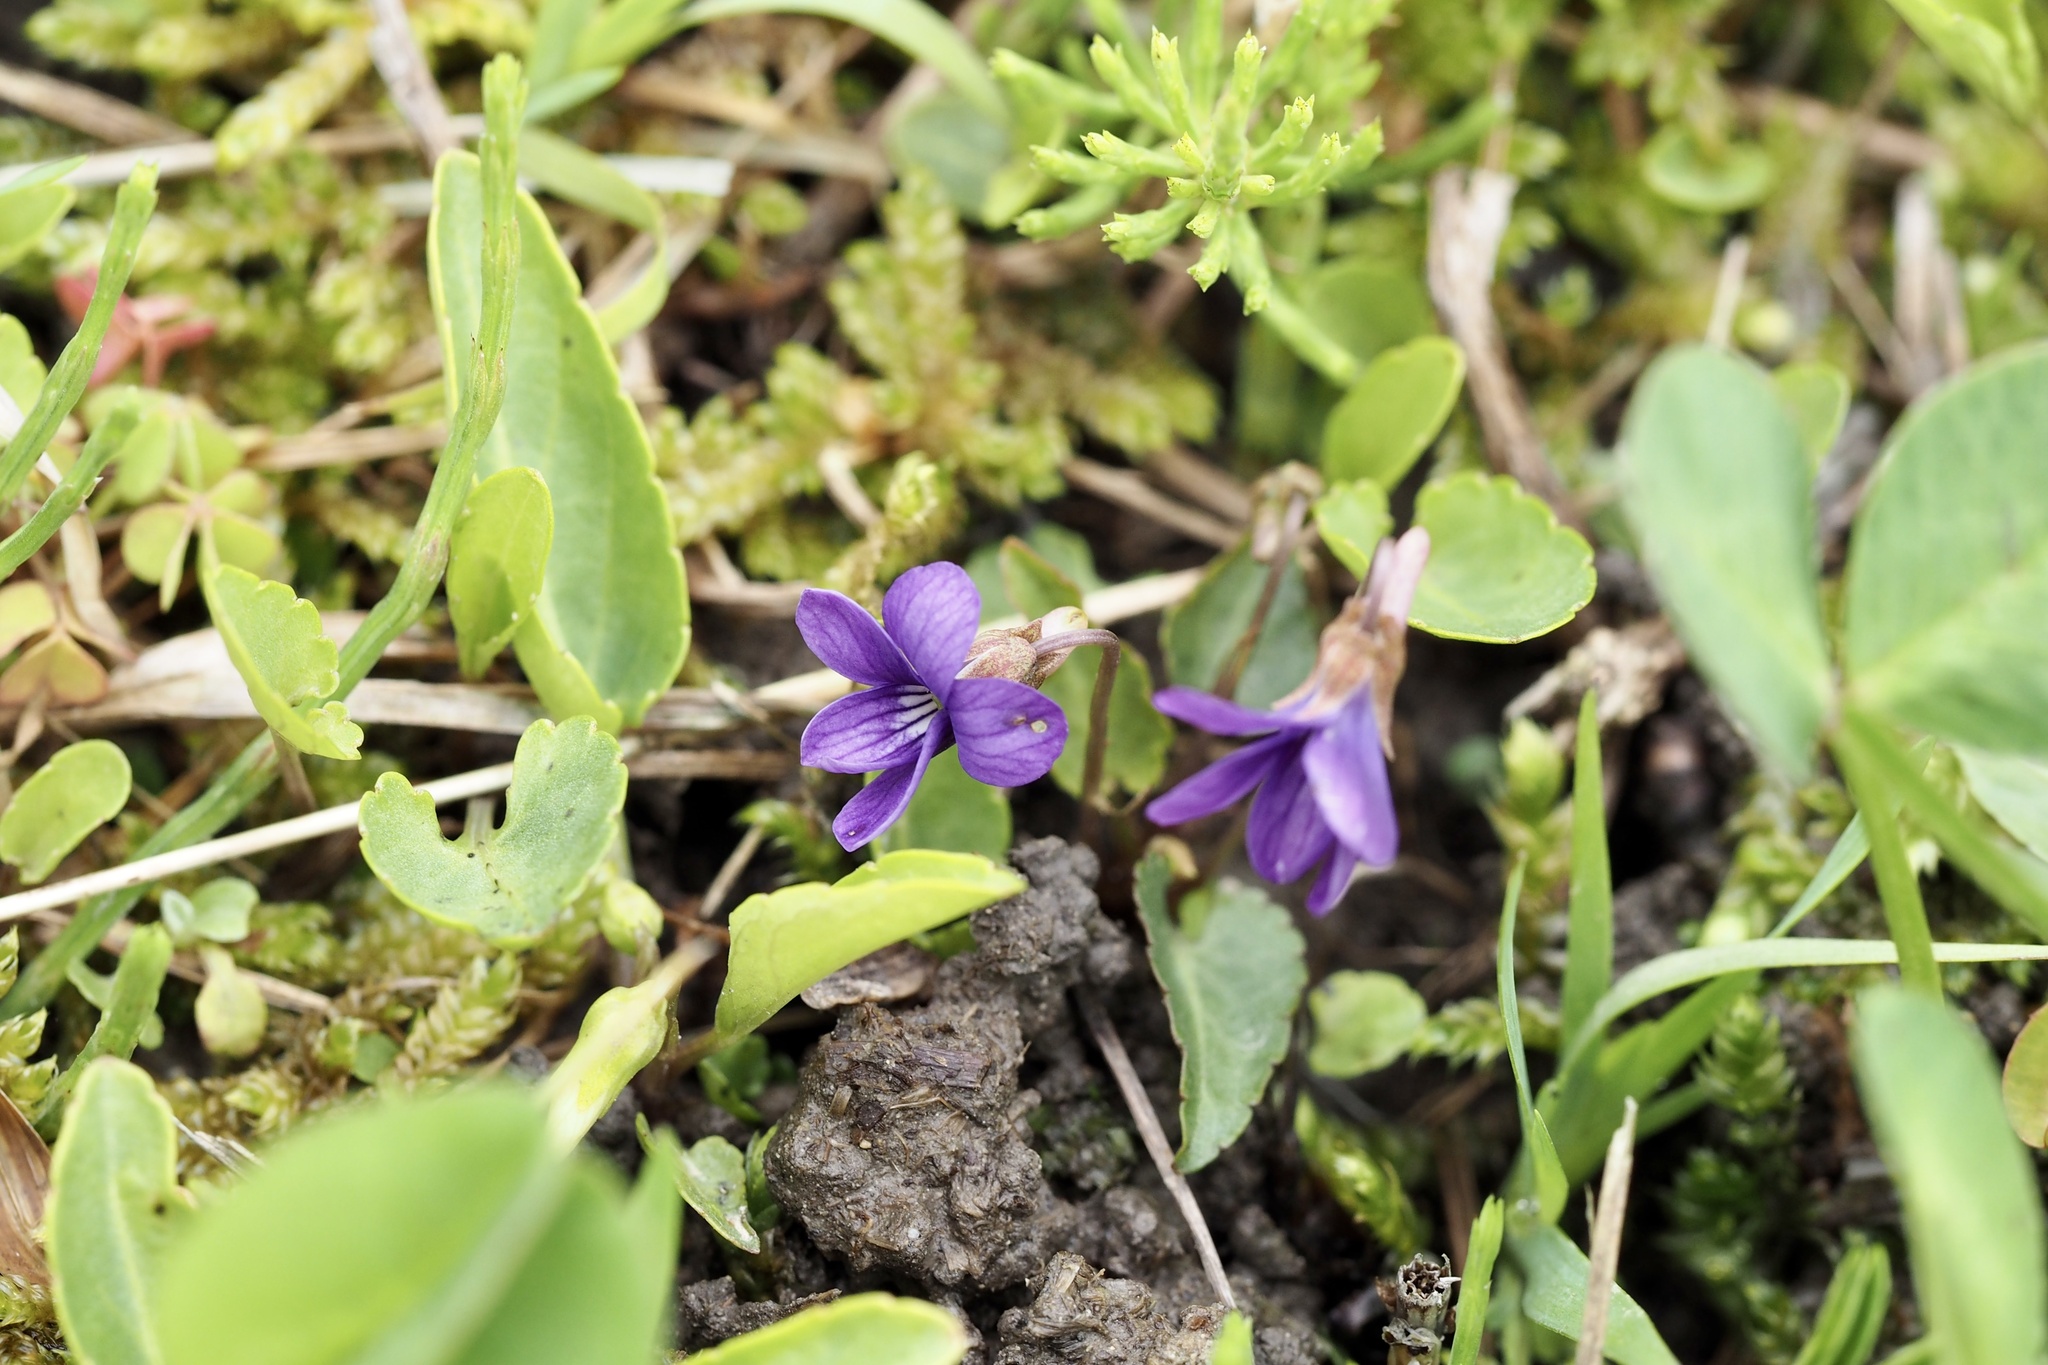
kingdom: Plantae
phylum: Tracheophyta
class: Magnoliopsida
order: Malpighiales
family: Violaceae
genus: Viola
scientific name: Viola inconspicua
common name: Long sepal violet
